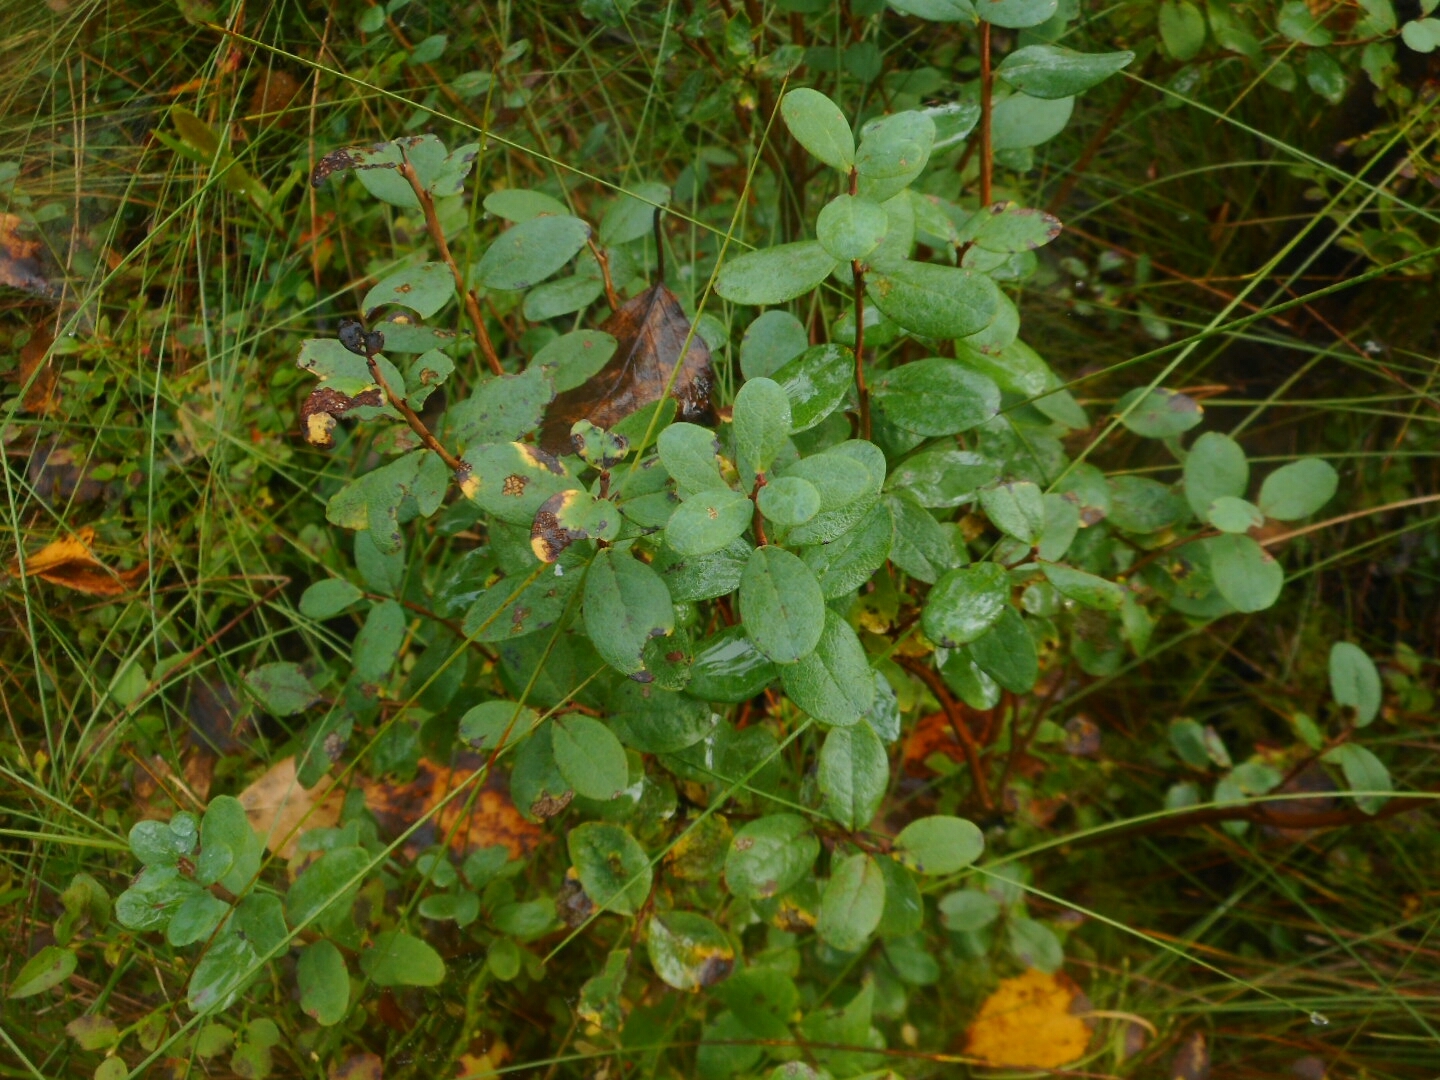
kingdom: Plantae
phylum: Tracheophyta
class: Magnoliopsida
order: Ericales
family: Ericaceae
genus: Vaccinium
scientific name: Vaccinium uliginosum
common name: Bog bilberry
